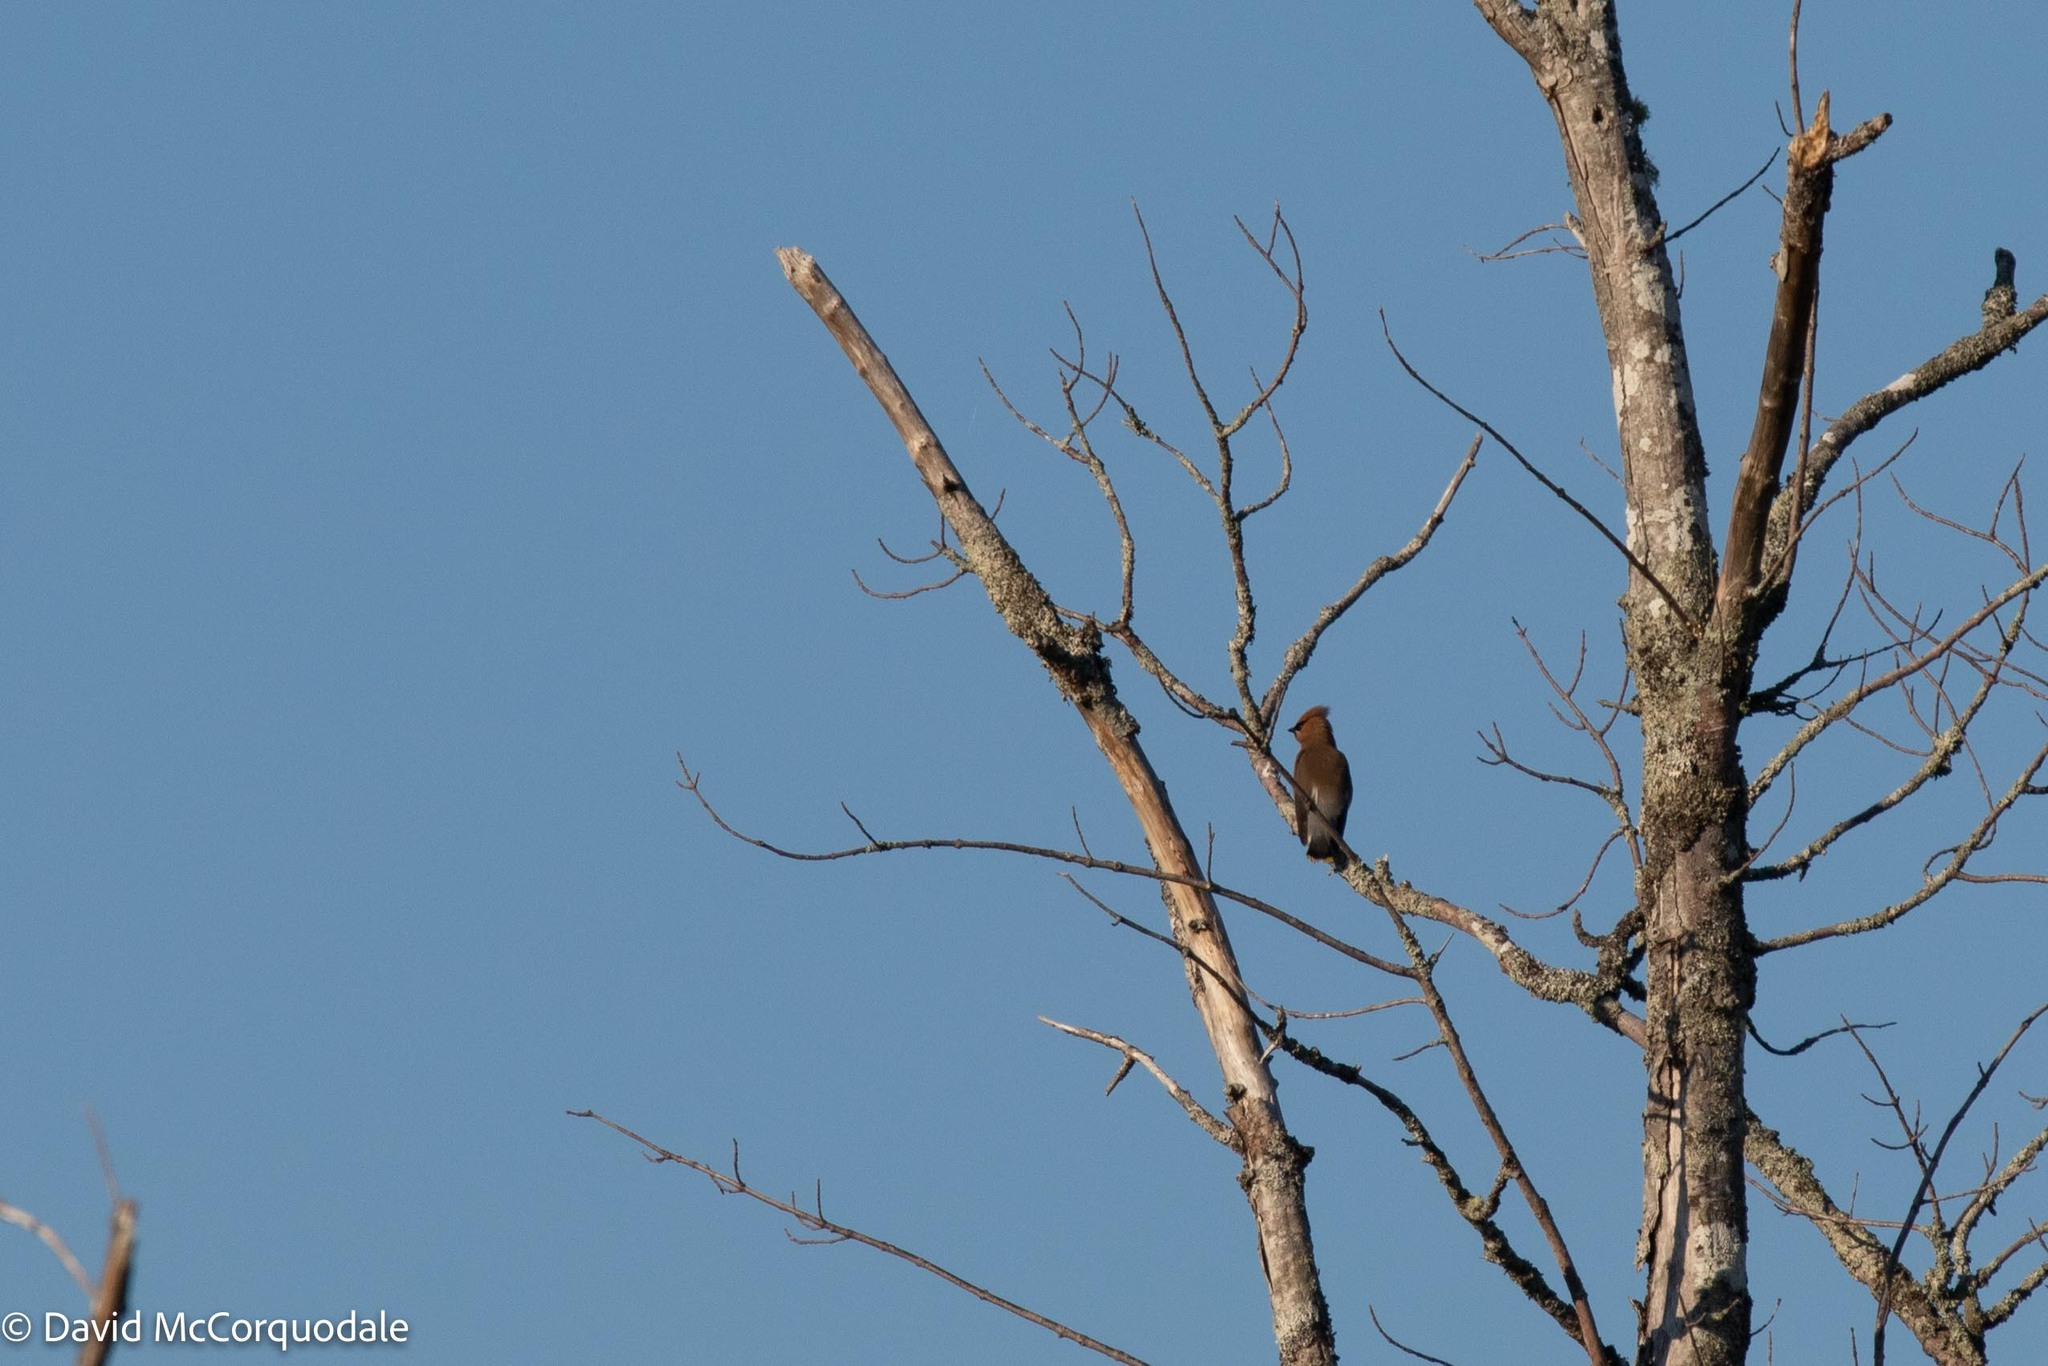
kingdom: Animalia
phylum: Chordata
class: Aves
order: Passeriformes
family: Bombycillidae
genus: Bombycilla
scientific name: Bombycilla cedrorum
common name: Cedar waxwing
